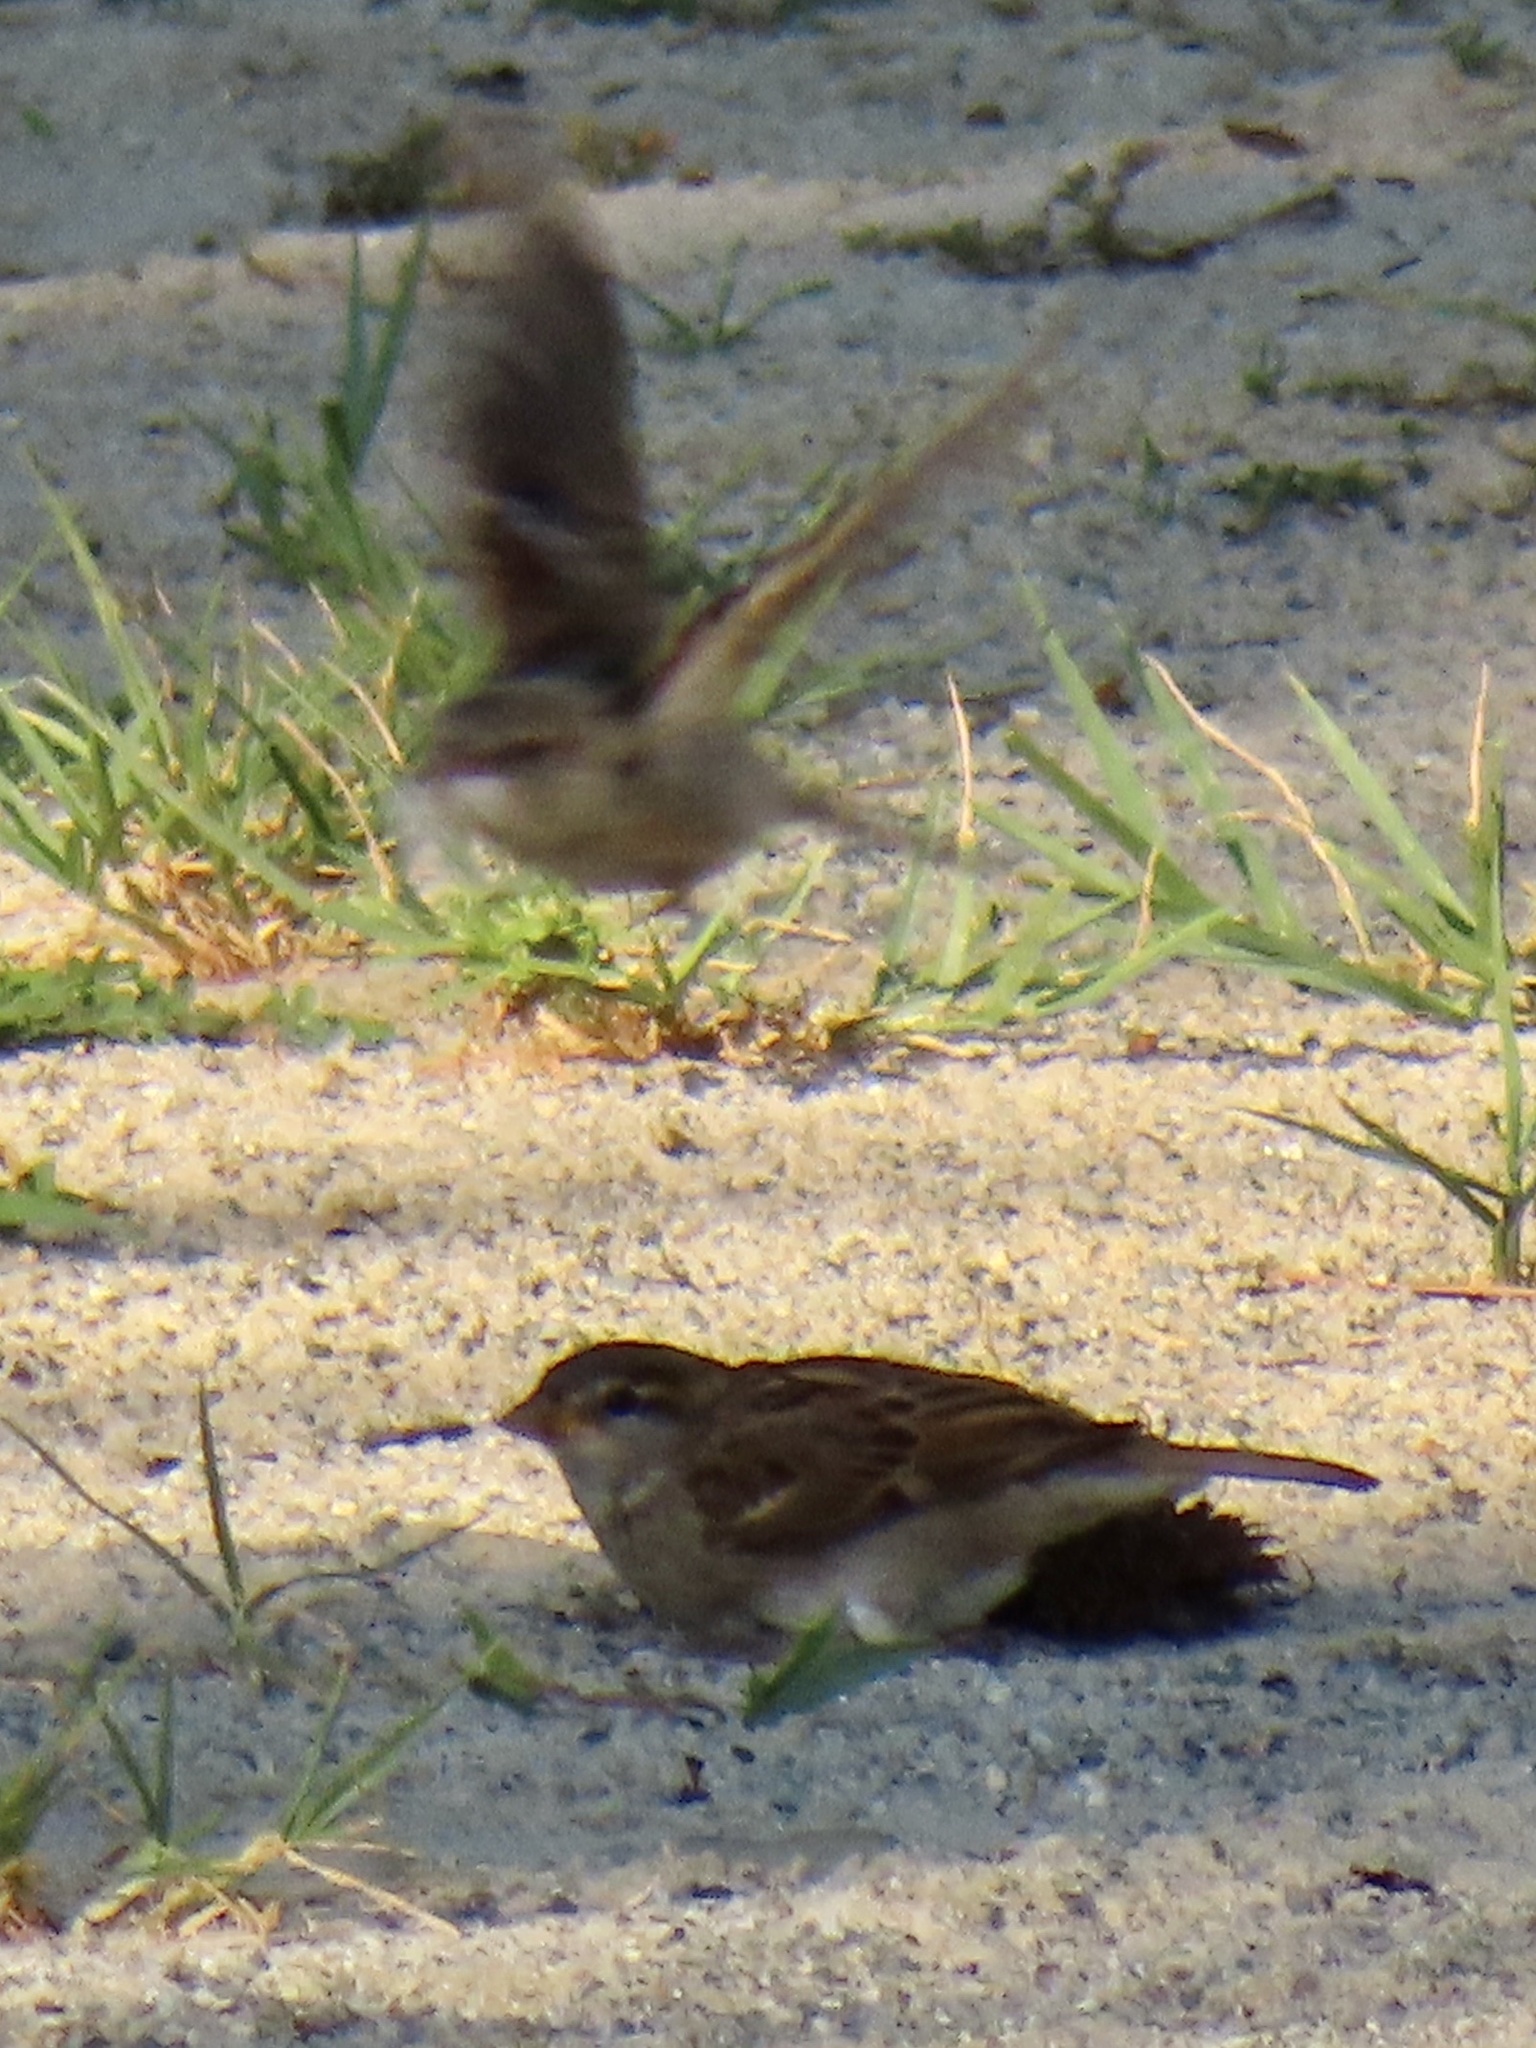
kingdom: Animalia
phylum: Chordata
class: Aves
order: Passeriformes
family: Passeridae
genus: Passer
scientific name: Passer domesticus
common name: House sparrow
